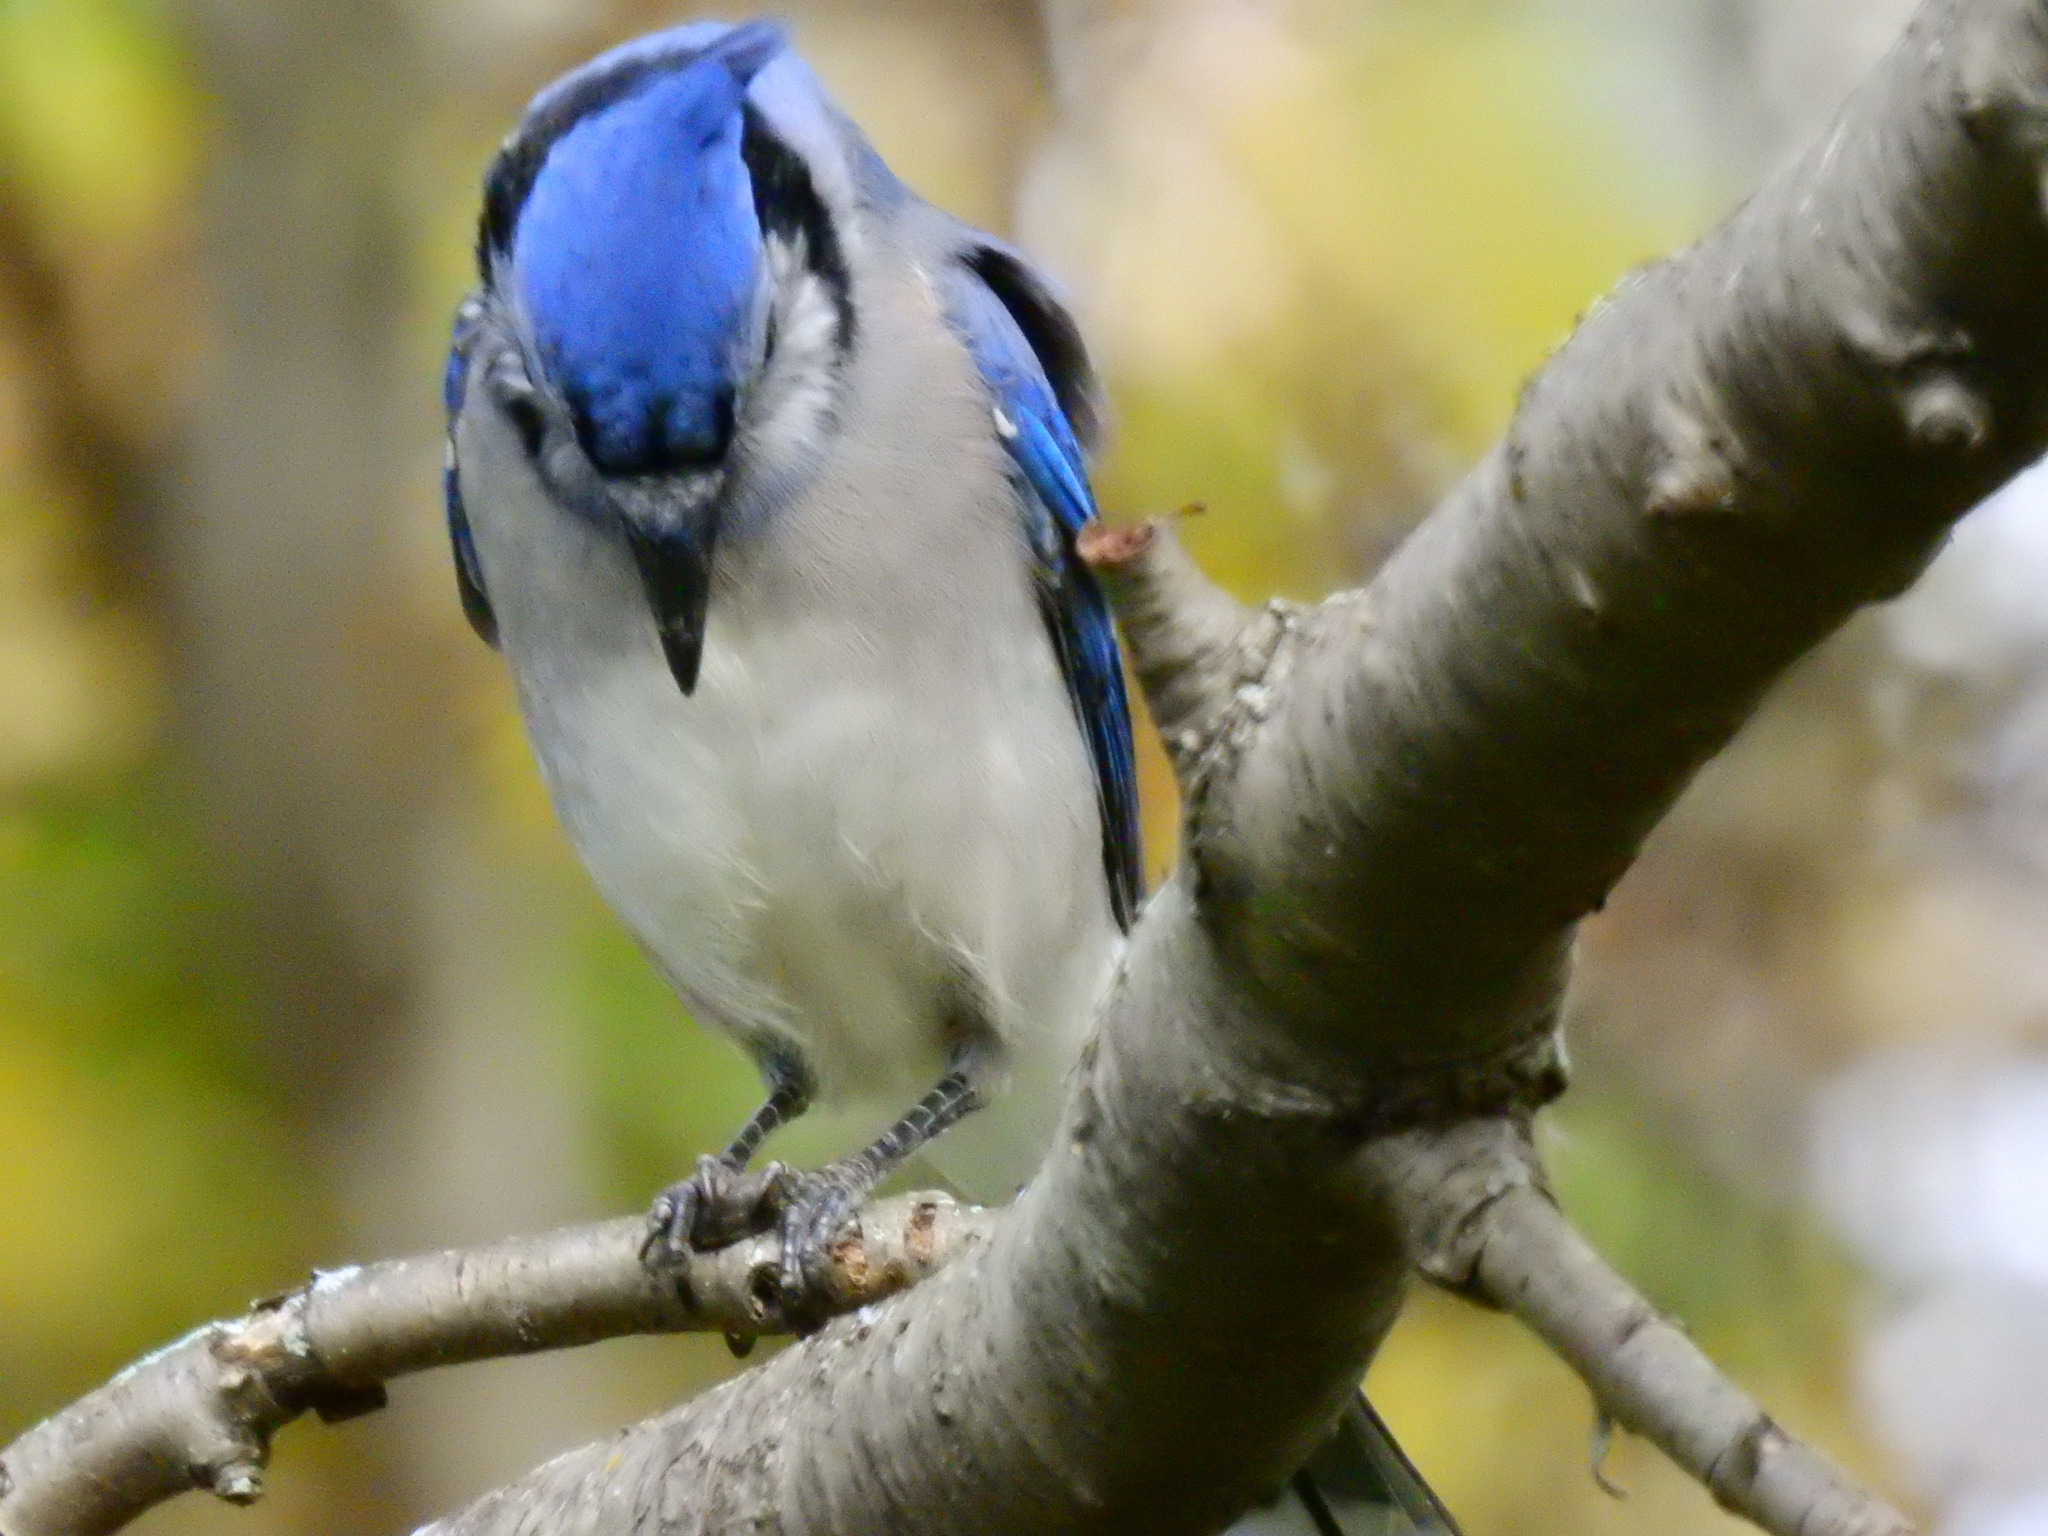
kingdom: Animalia
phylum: Chordata
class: Aves
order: Passeriformes
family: Corvidae
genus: Cyanocitta
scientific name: Cyanocitta cristata
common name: Blue jay
